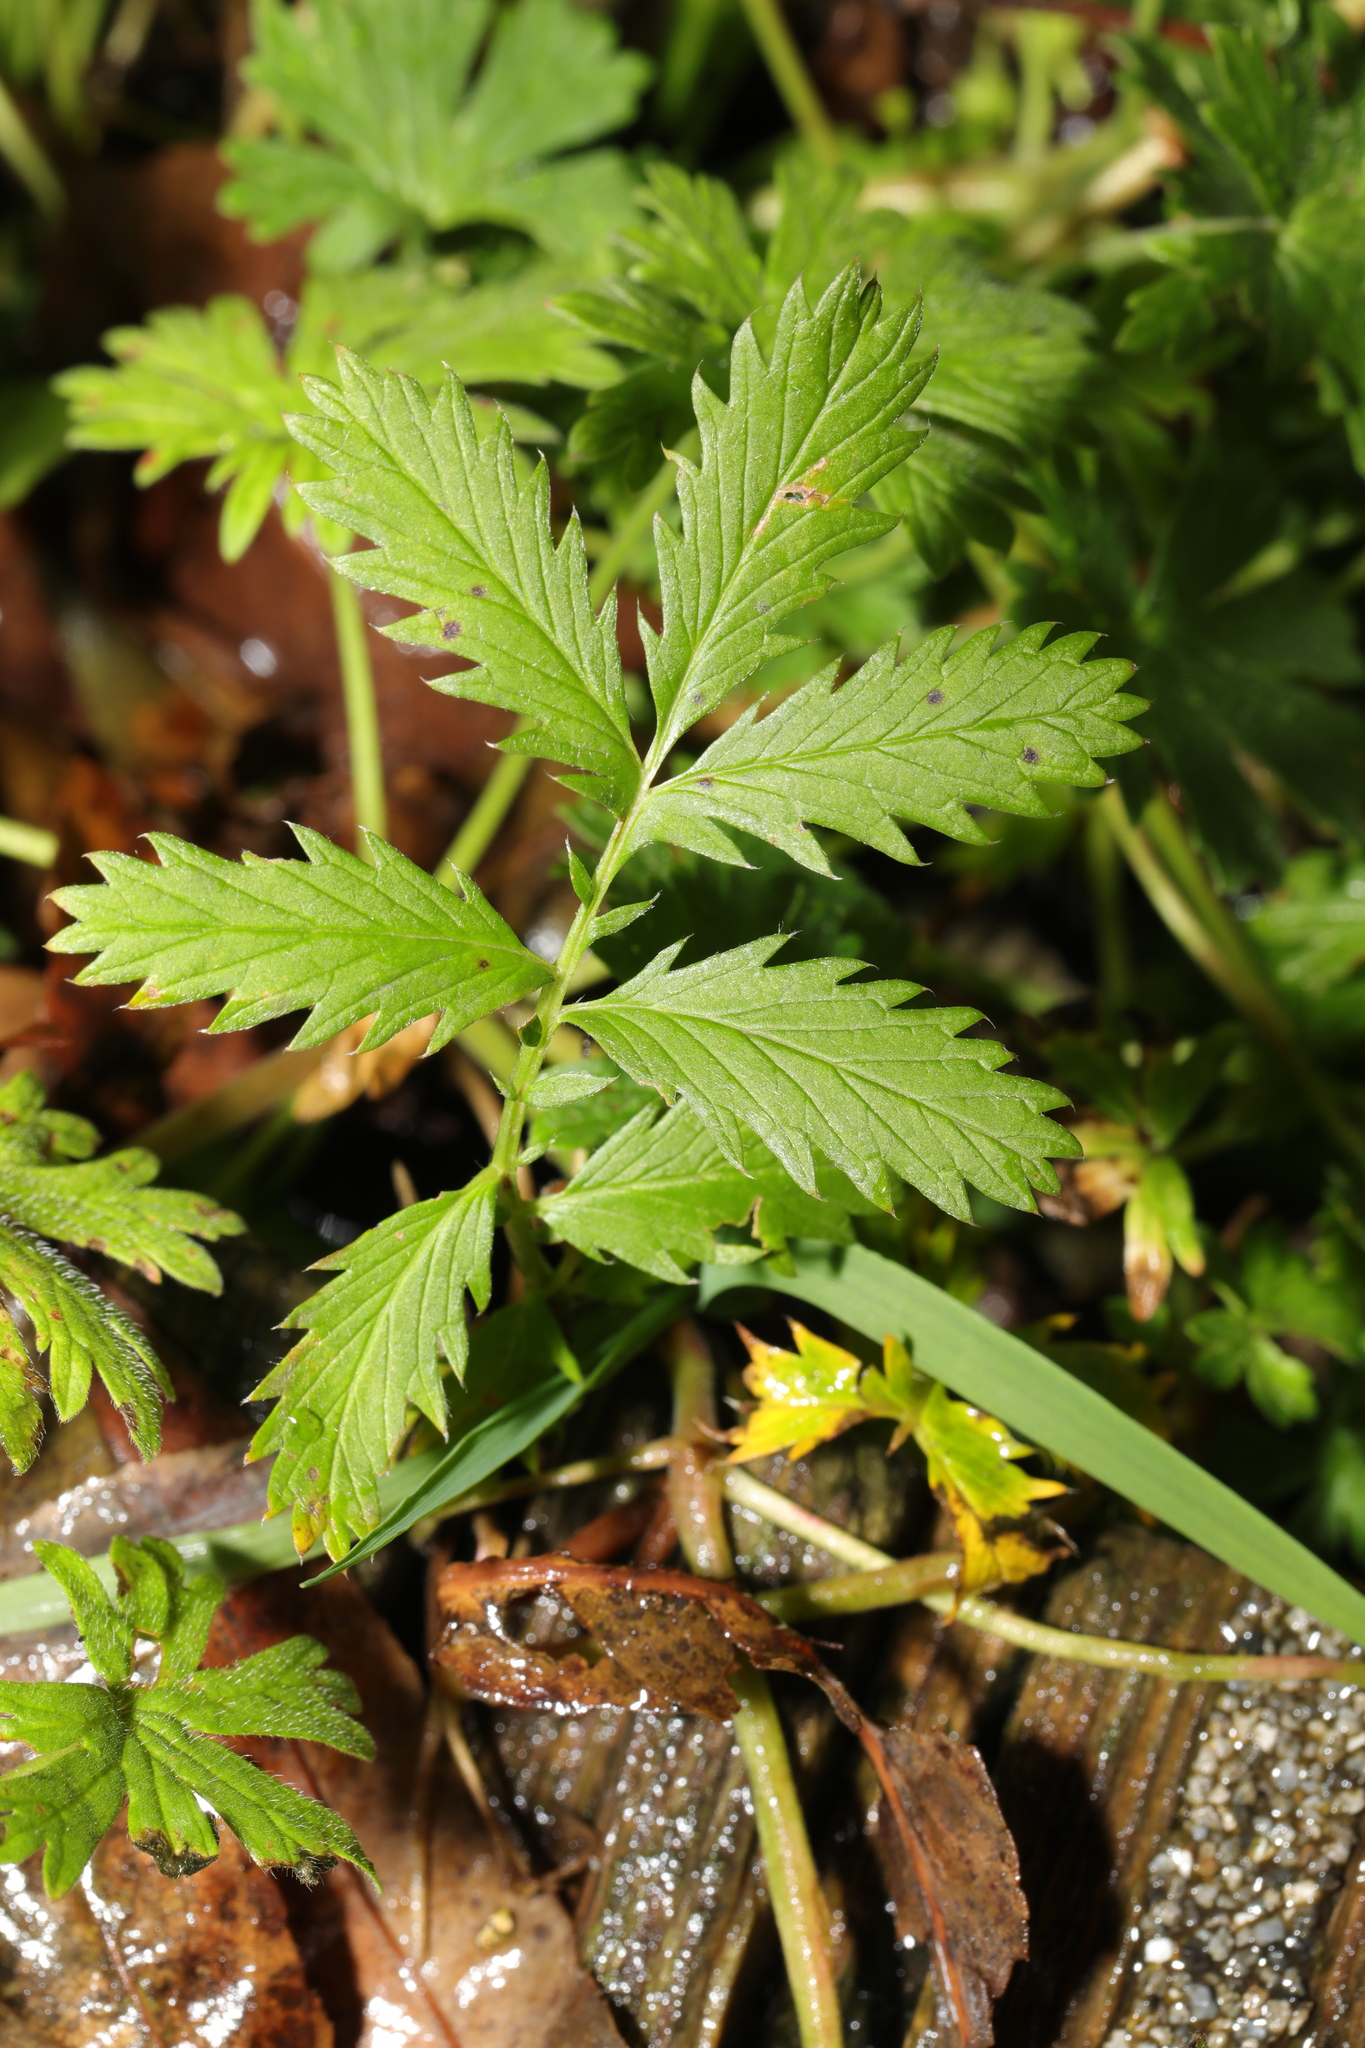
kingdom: Plantae
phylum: Tracheophyta
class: Magnoliopsida
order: Rosales
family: Rosaceae
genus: Argentina
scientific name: Argentina anserina
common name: Common silverweed
